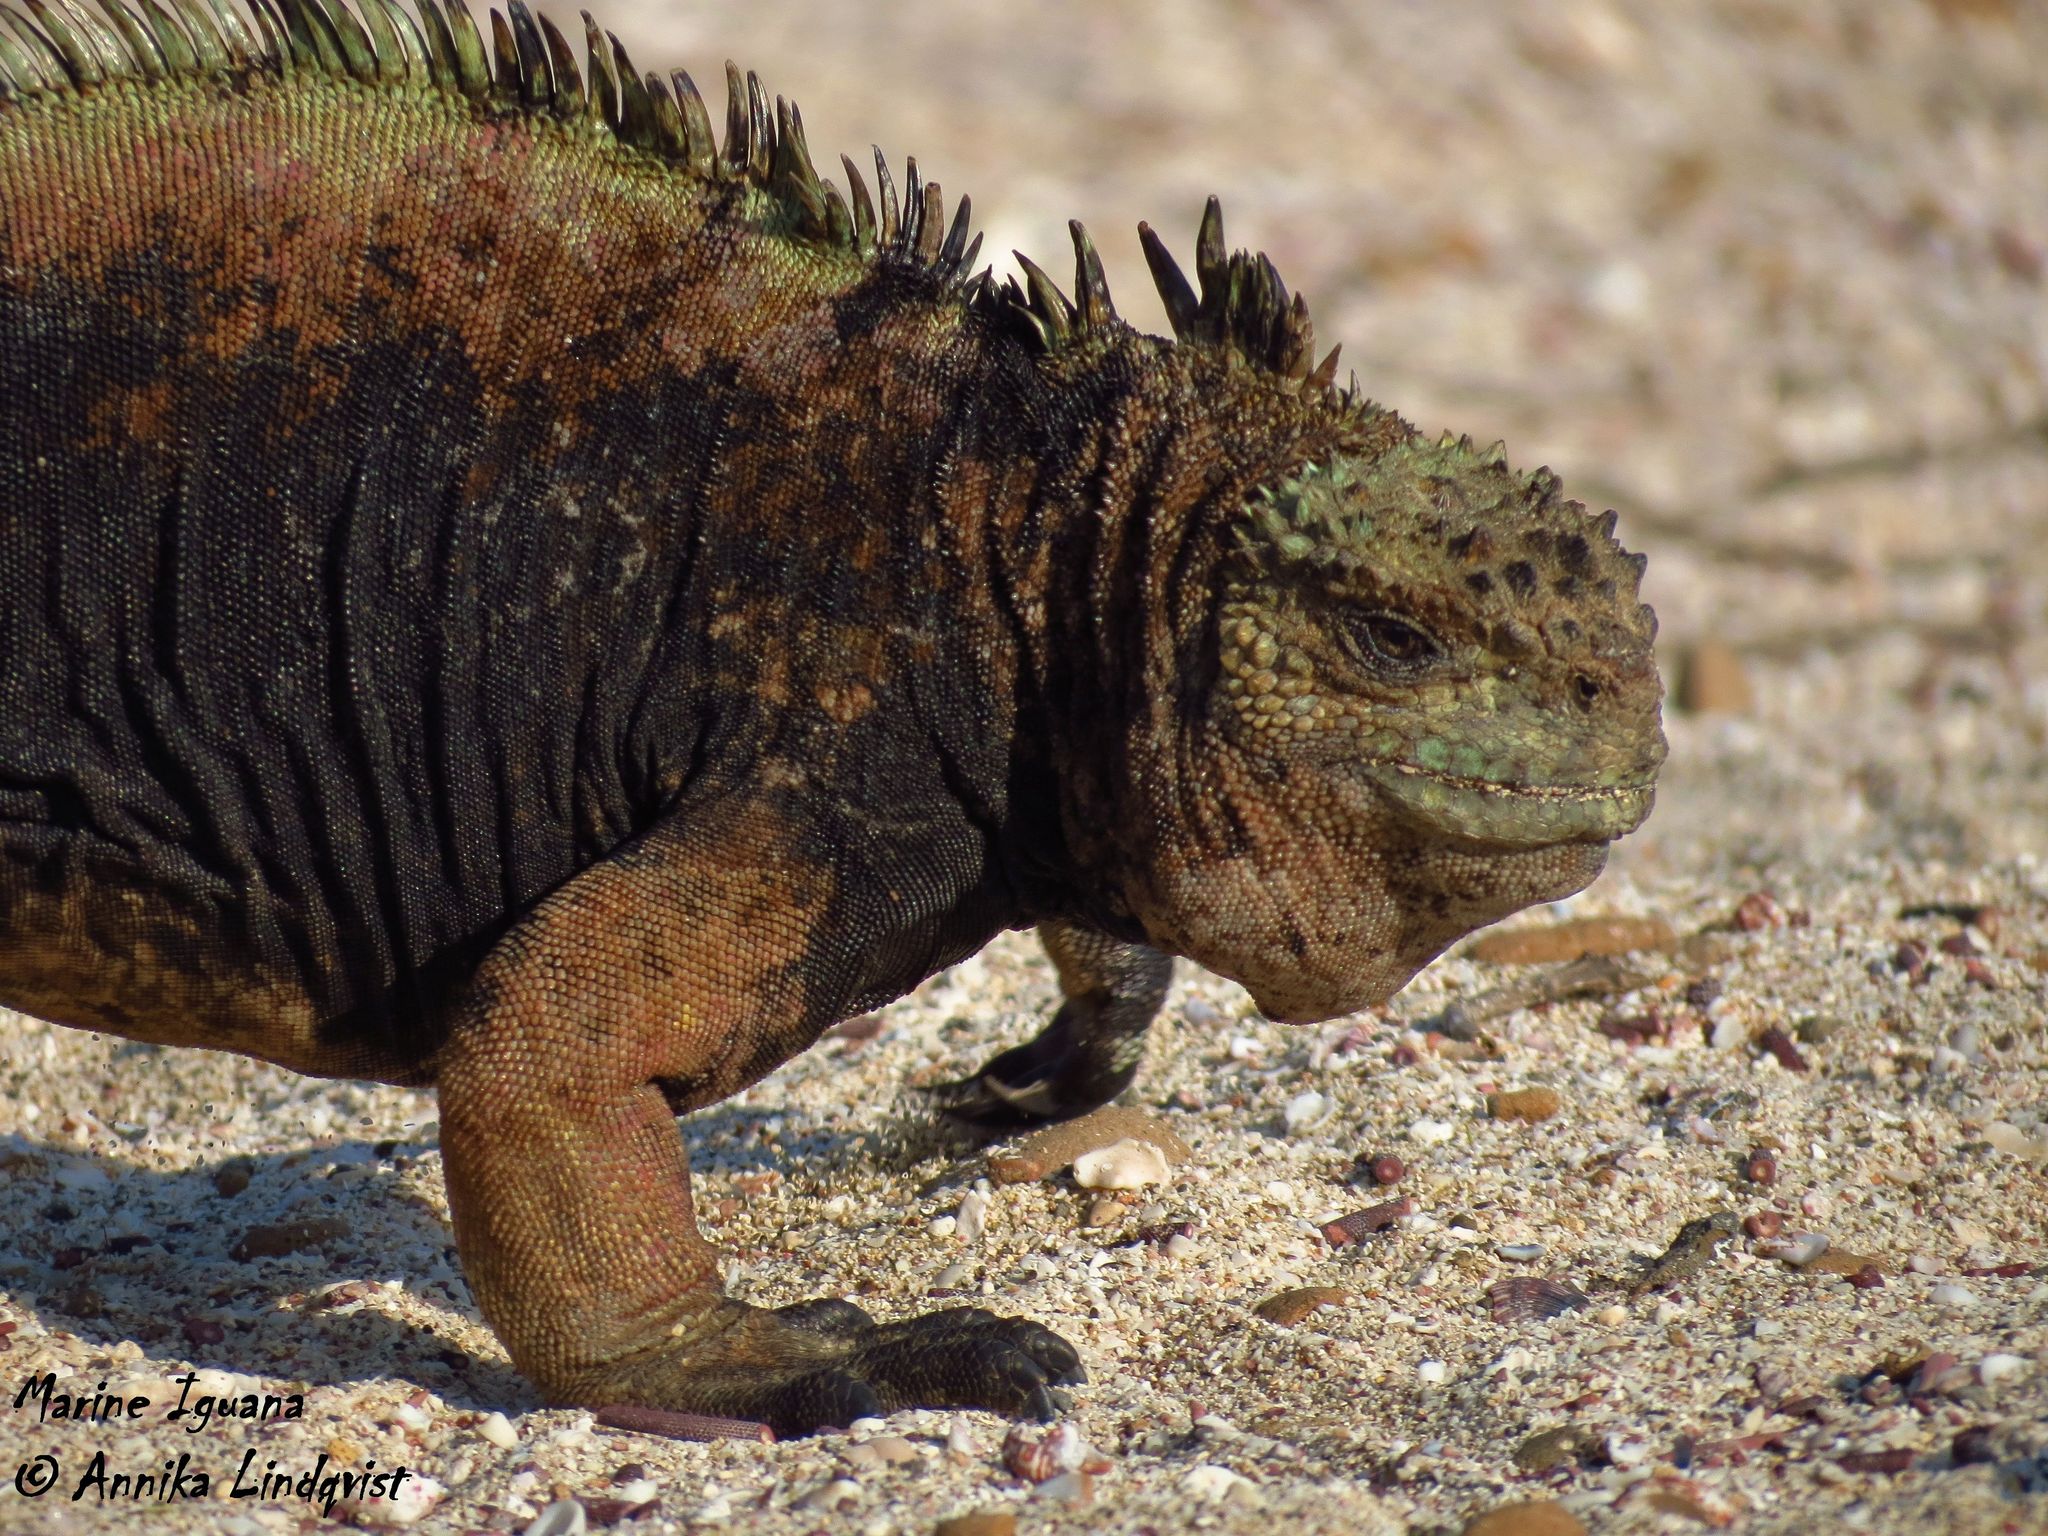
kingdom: Animalia
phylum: Chordata
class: Squamata
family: Iguanidae
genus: Amblyrhynchus
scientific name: Amblyrhynchus cristatus
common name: Marine iguana
